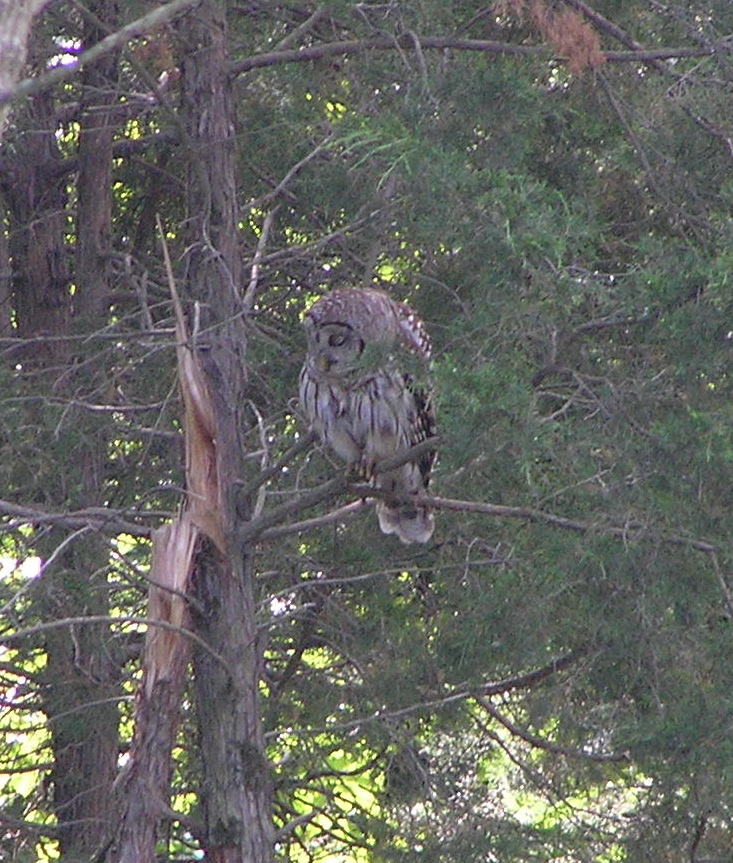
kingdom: Animalia
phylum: Chordata
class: Aves
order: Strigiformes
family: Strigidae
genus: Strix
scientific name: Strix varia
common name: Barred owl
